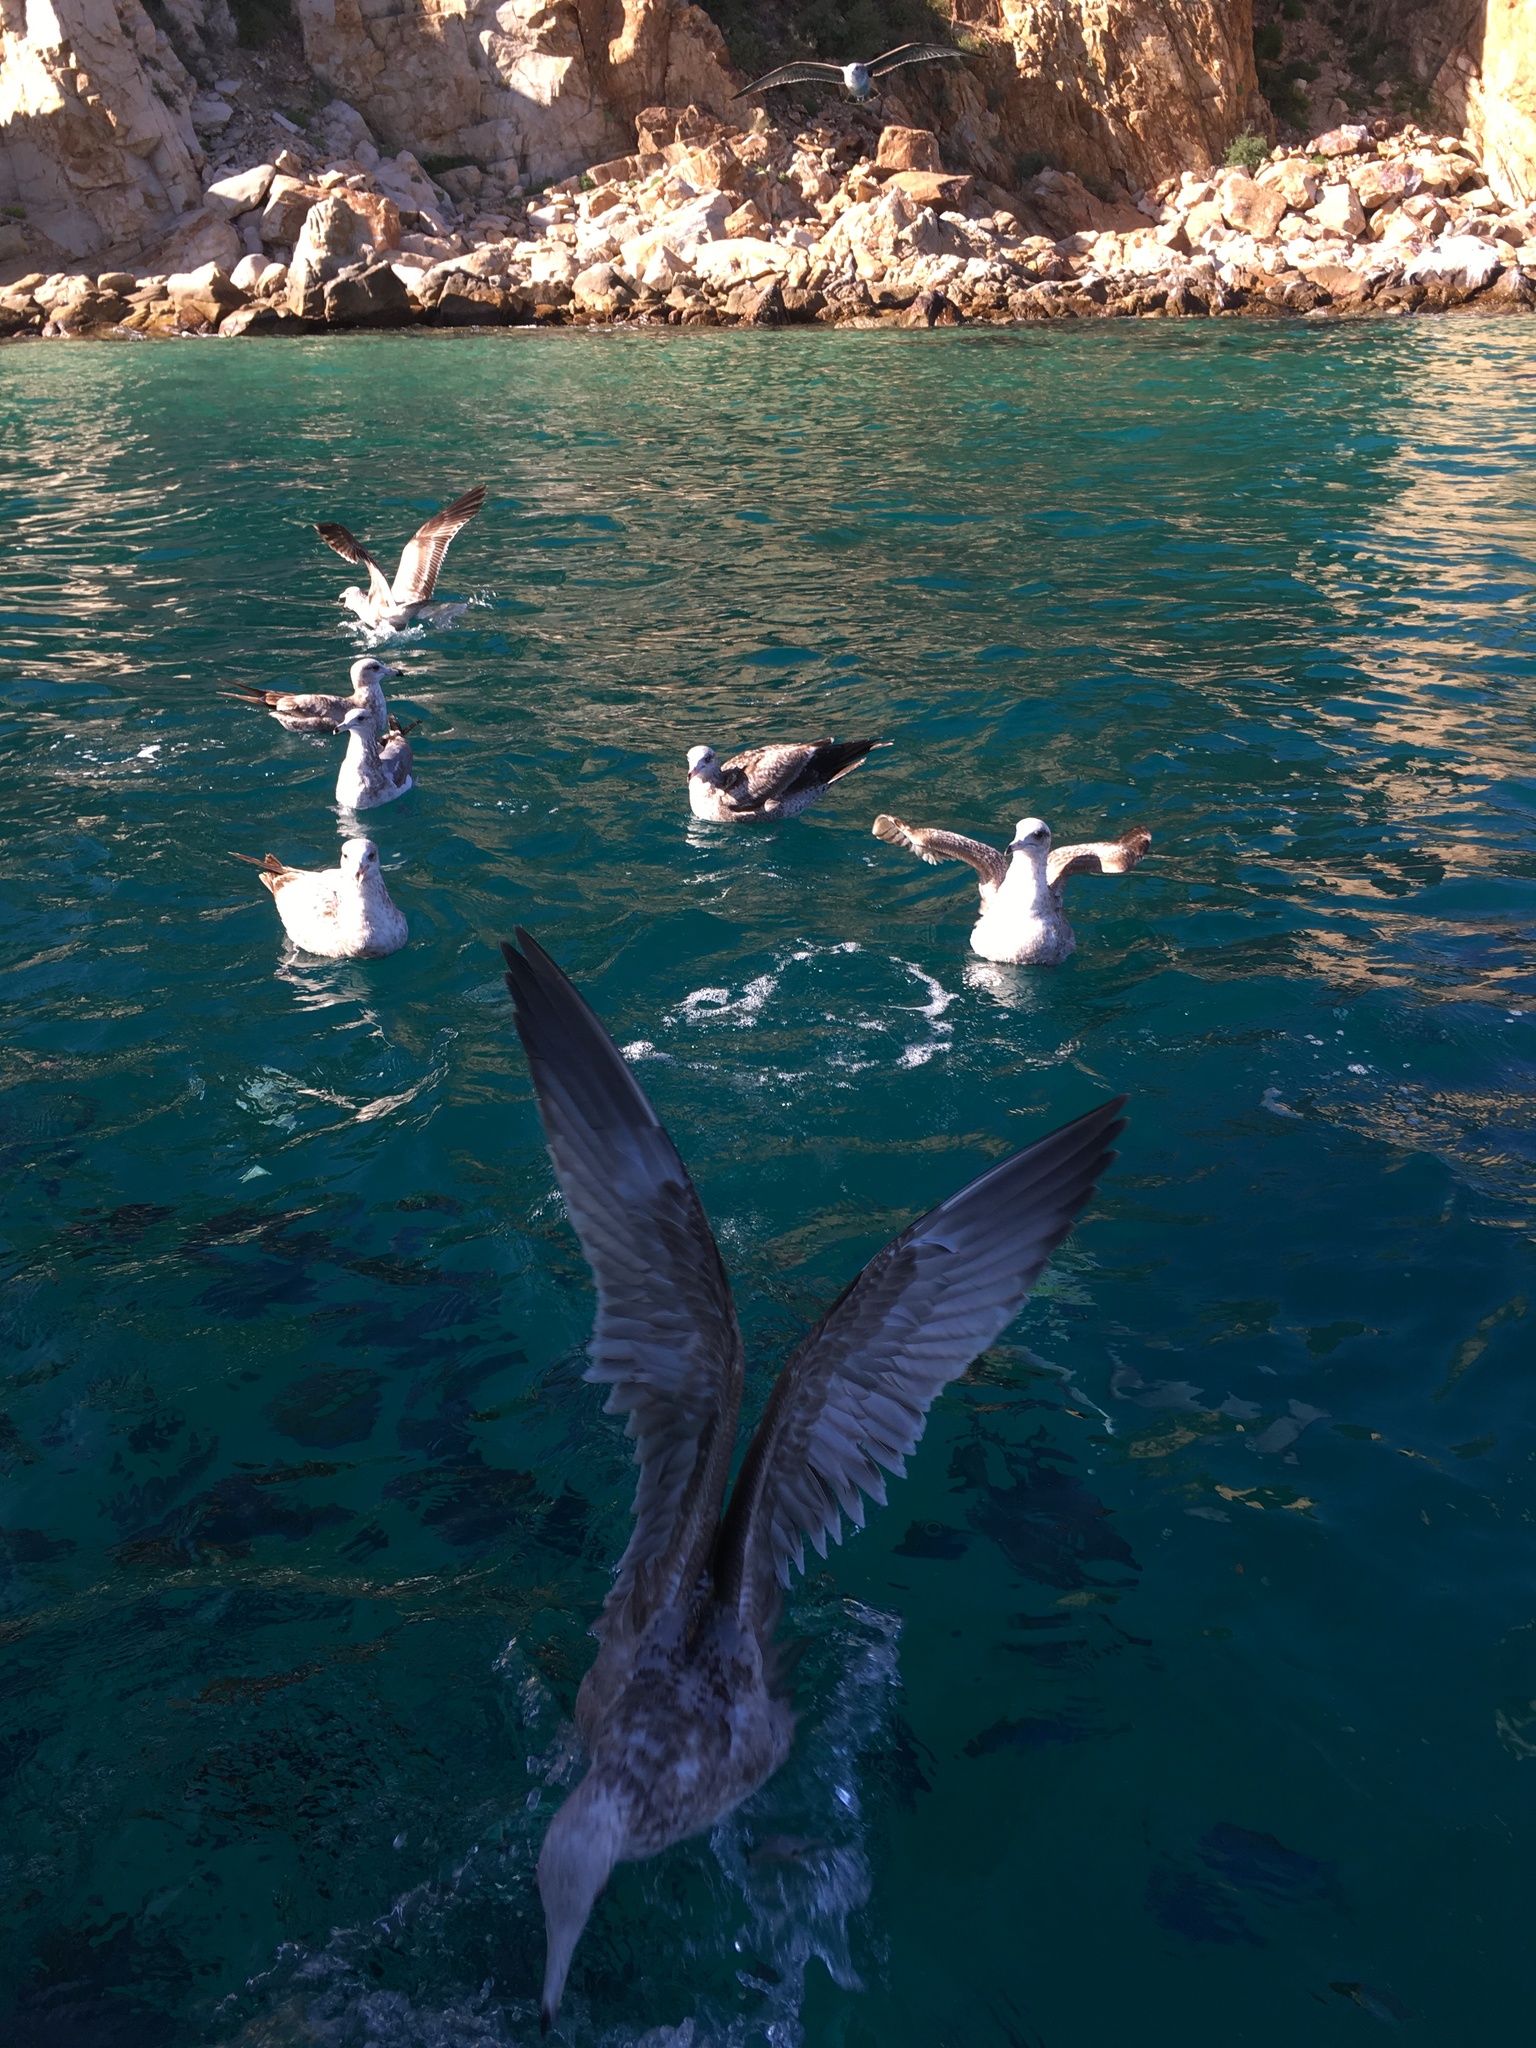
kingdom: Animalia
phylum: Chordata
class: Aves
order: Charadriiformes
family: Laridae
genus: Larus
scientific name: Larus californicus
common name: California gull
